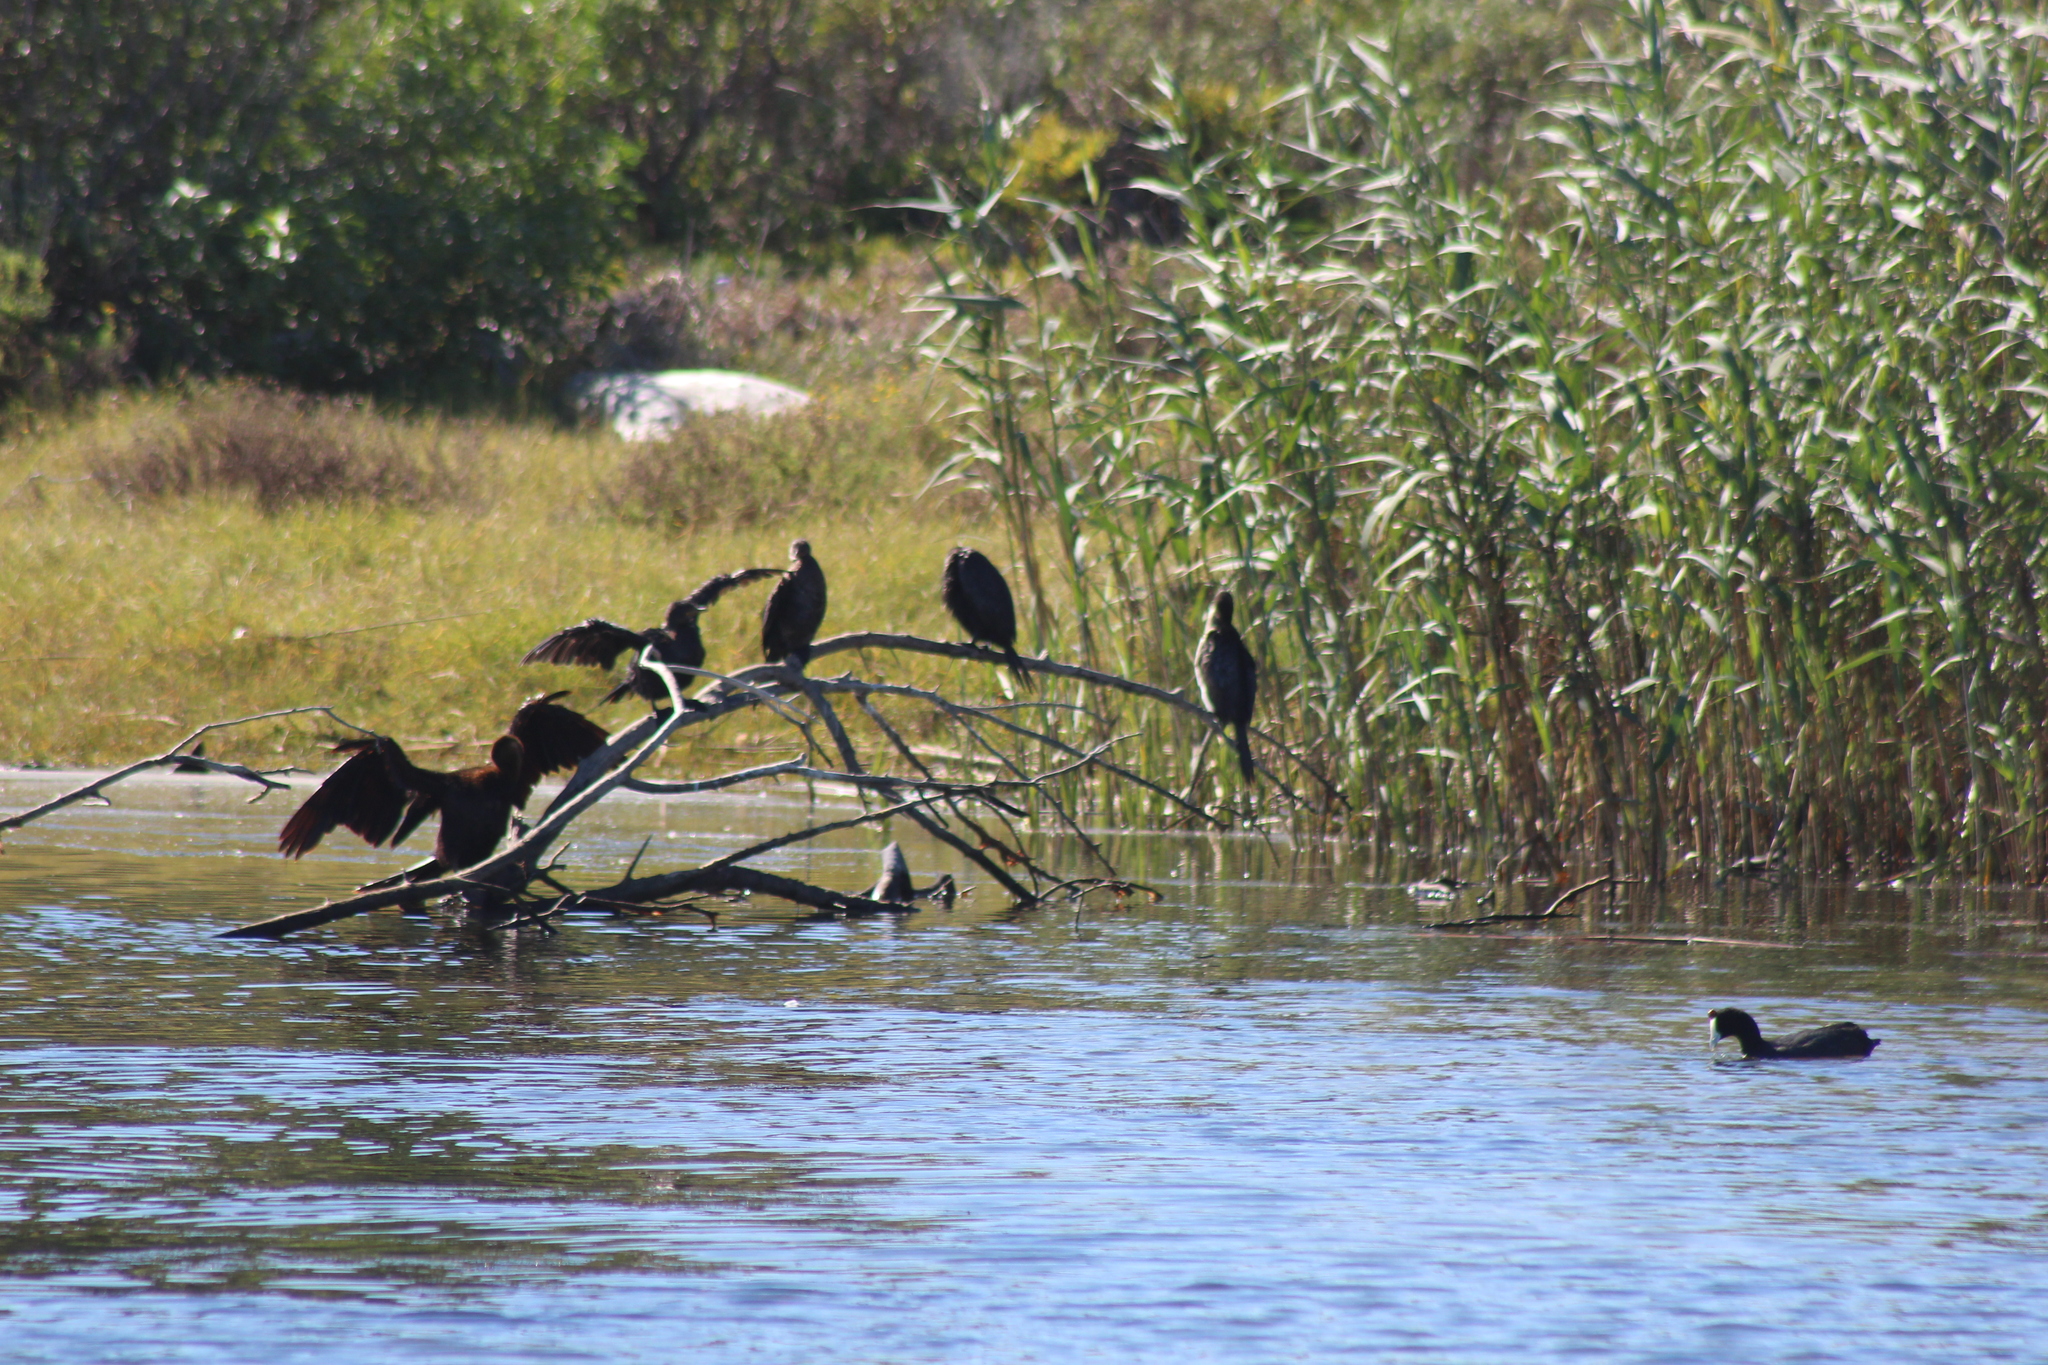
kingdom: Animalia
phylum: Chordata
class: Aves
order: Suliformes
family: Phalacrocoracidae
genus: Microcarbo
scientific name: Microcarbo africanus
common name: Long-tailed cormorant
